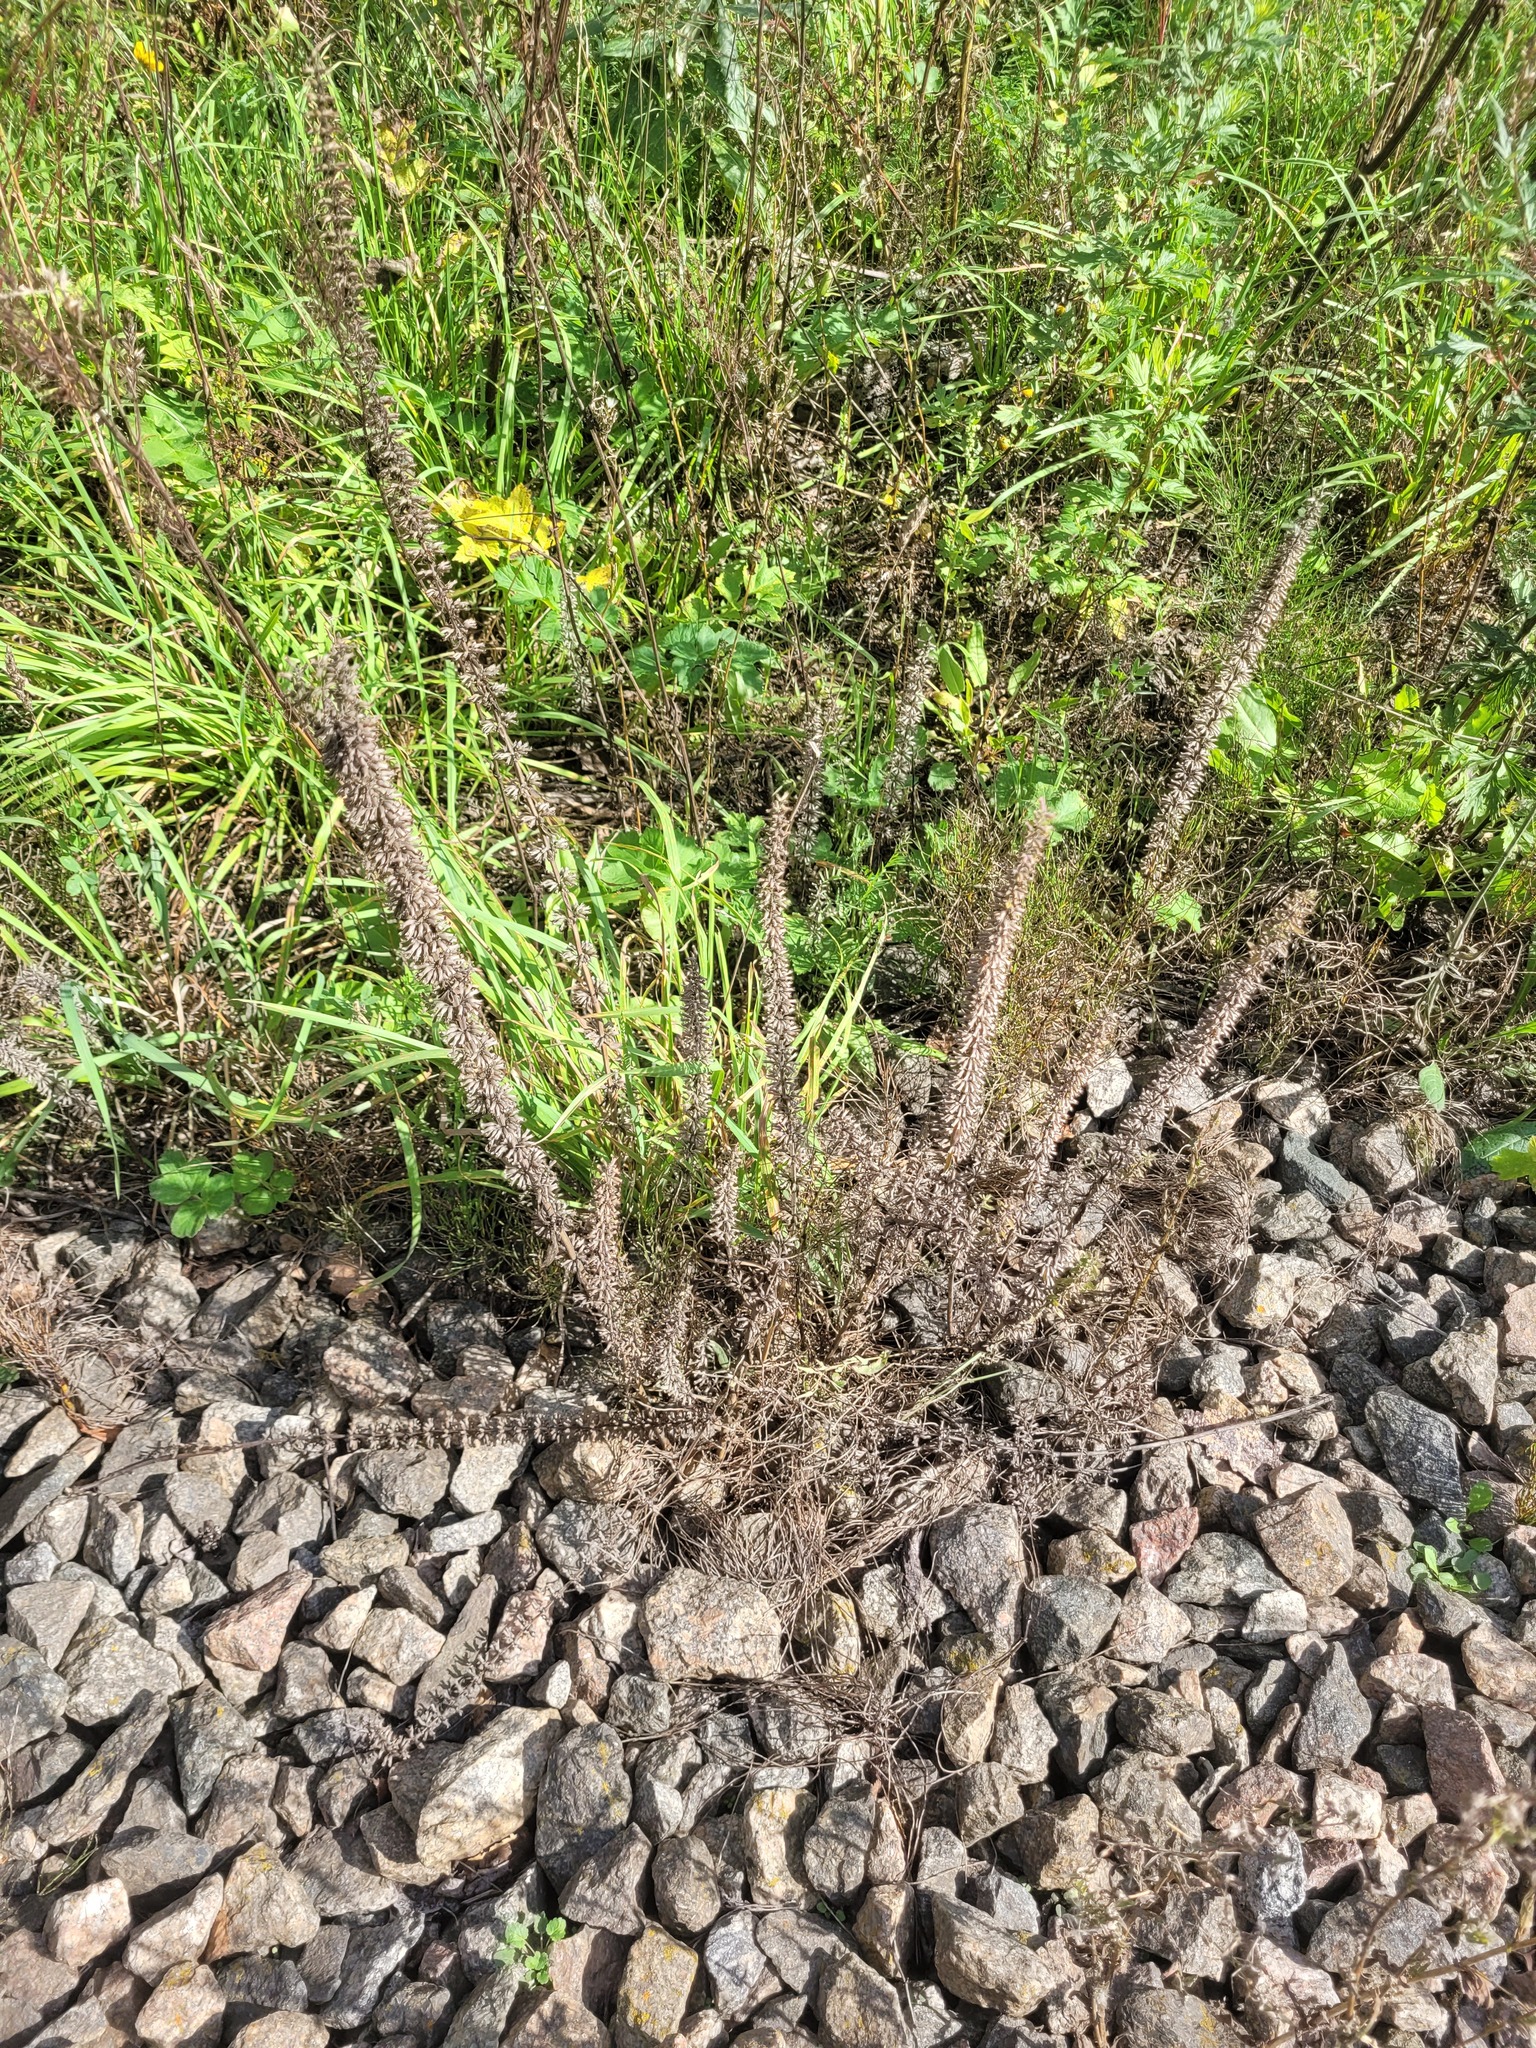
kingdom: Plantae
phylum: Tracheophyta
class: Magnoliopsida
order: Lamiales
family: Lamiaceae
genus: Dracocephalum
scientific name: Dracocephalum thymiflorum
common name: Thymeleaf dragonhead
